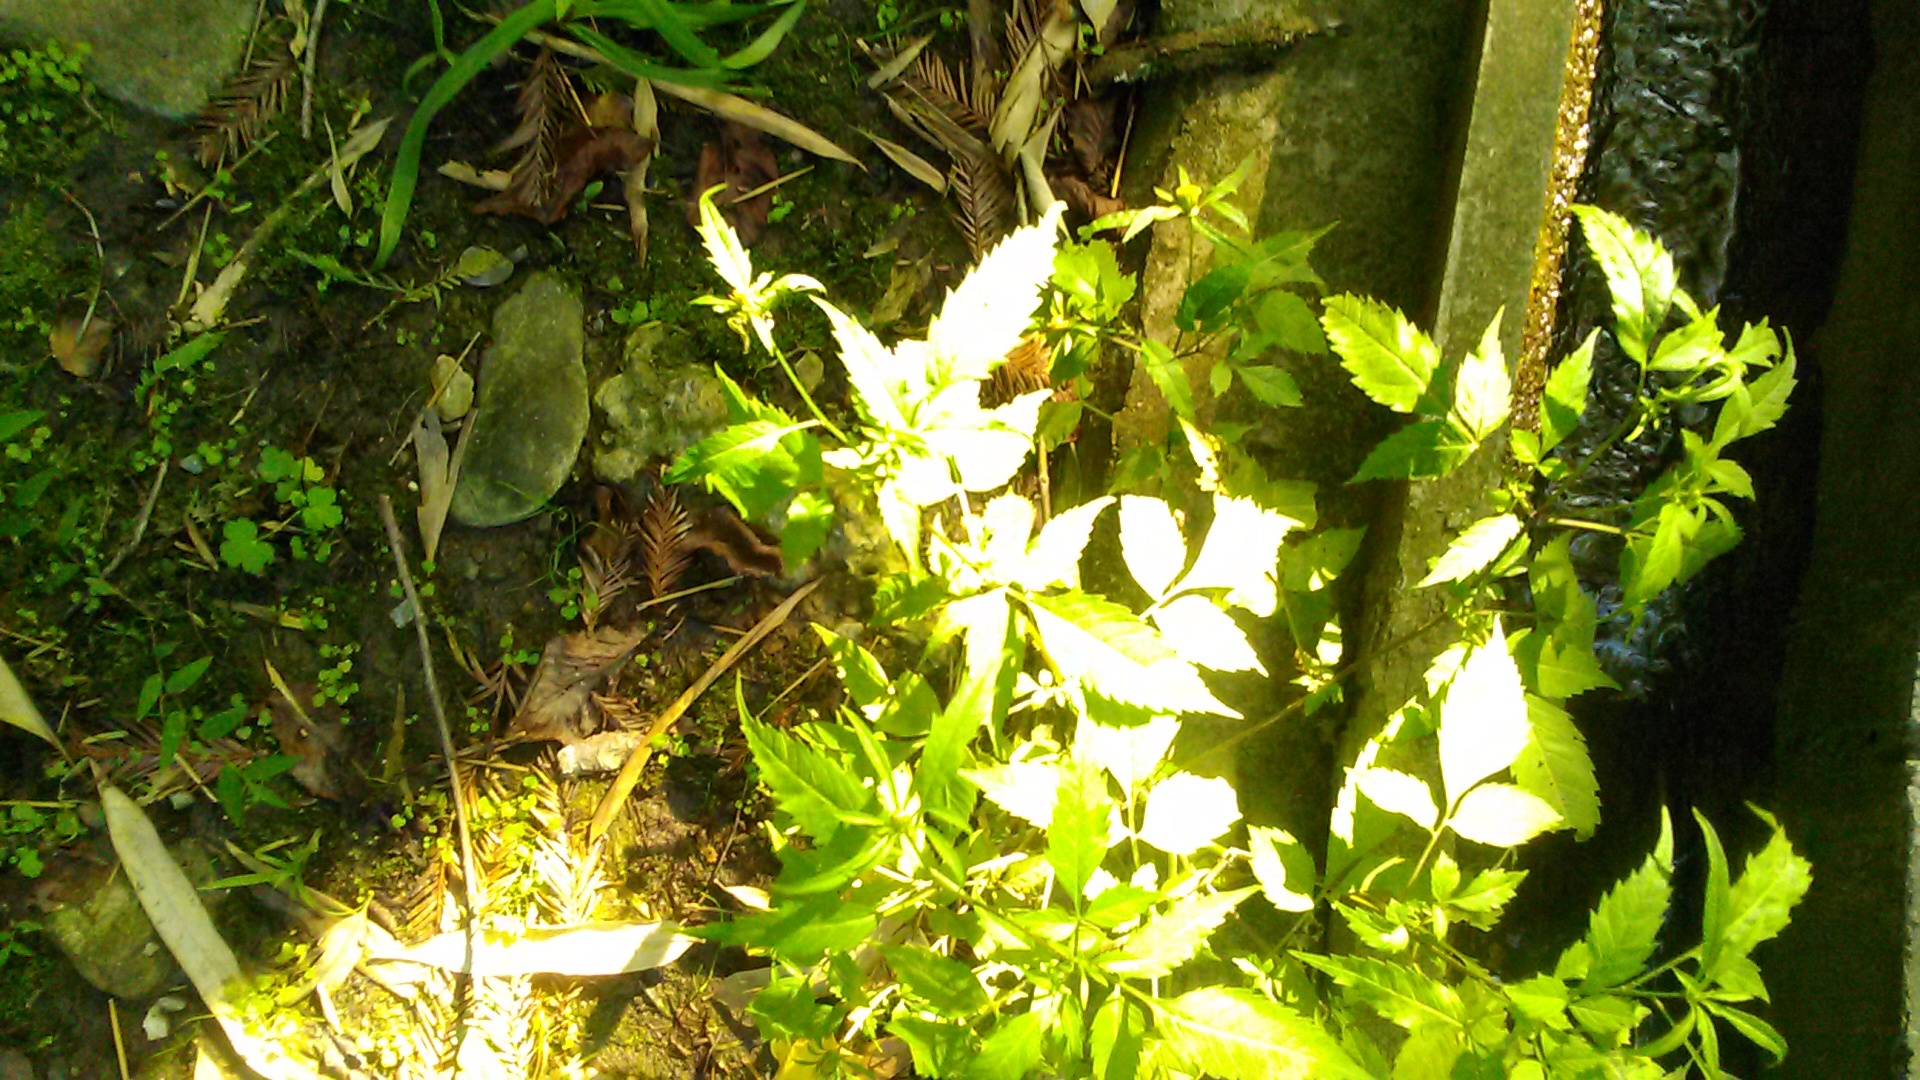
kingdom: Plantae
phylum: Tracheophyta
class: Magnoliopsida
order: Asterales
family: Asteraceae
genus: Bidens
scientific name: Bidens frondosa
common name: Beggarticks
